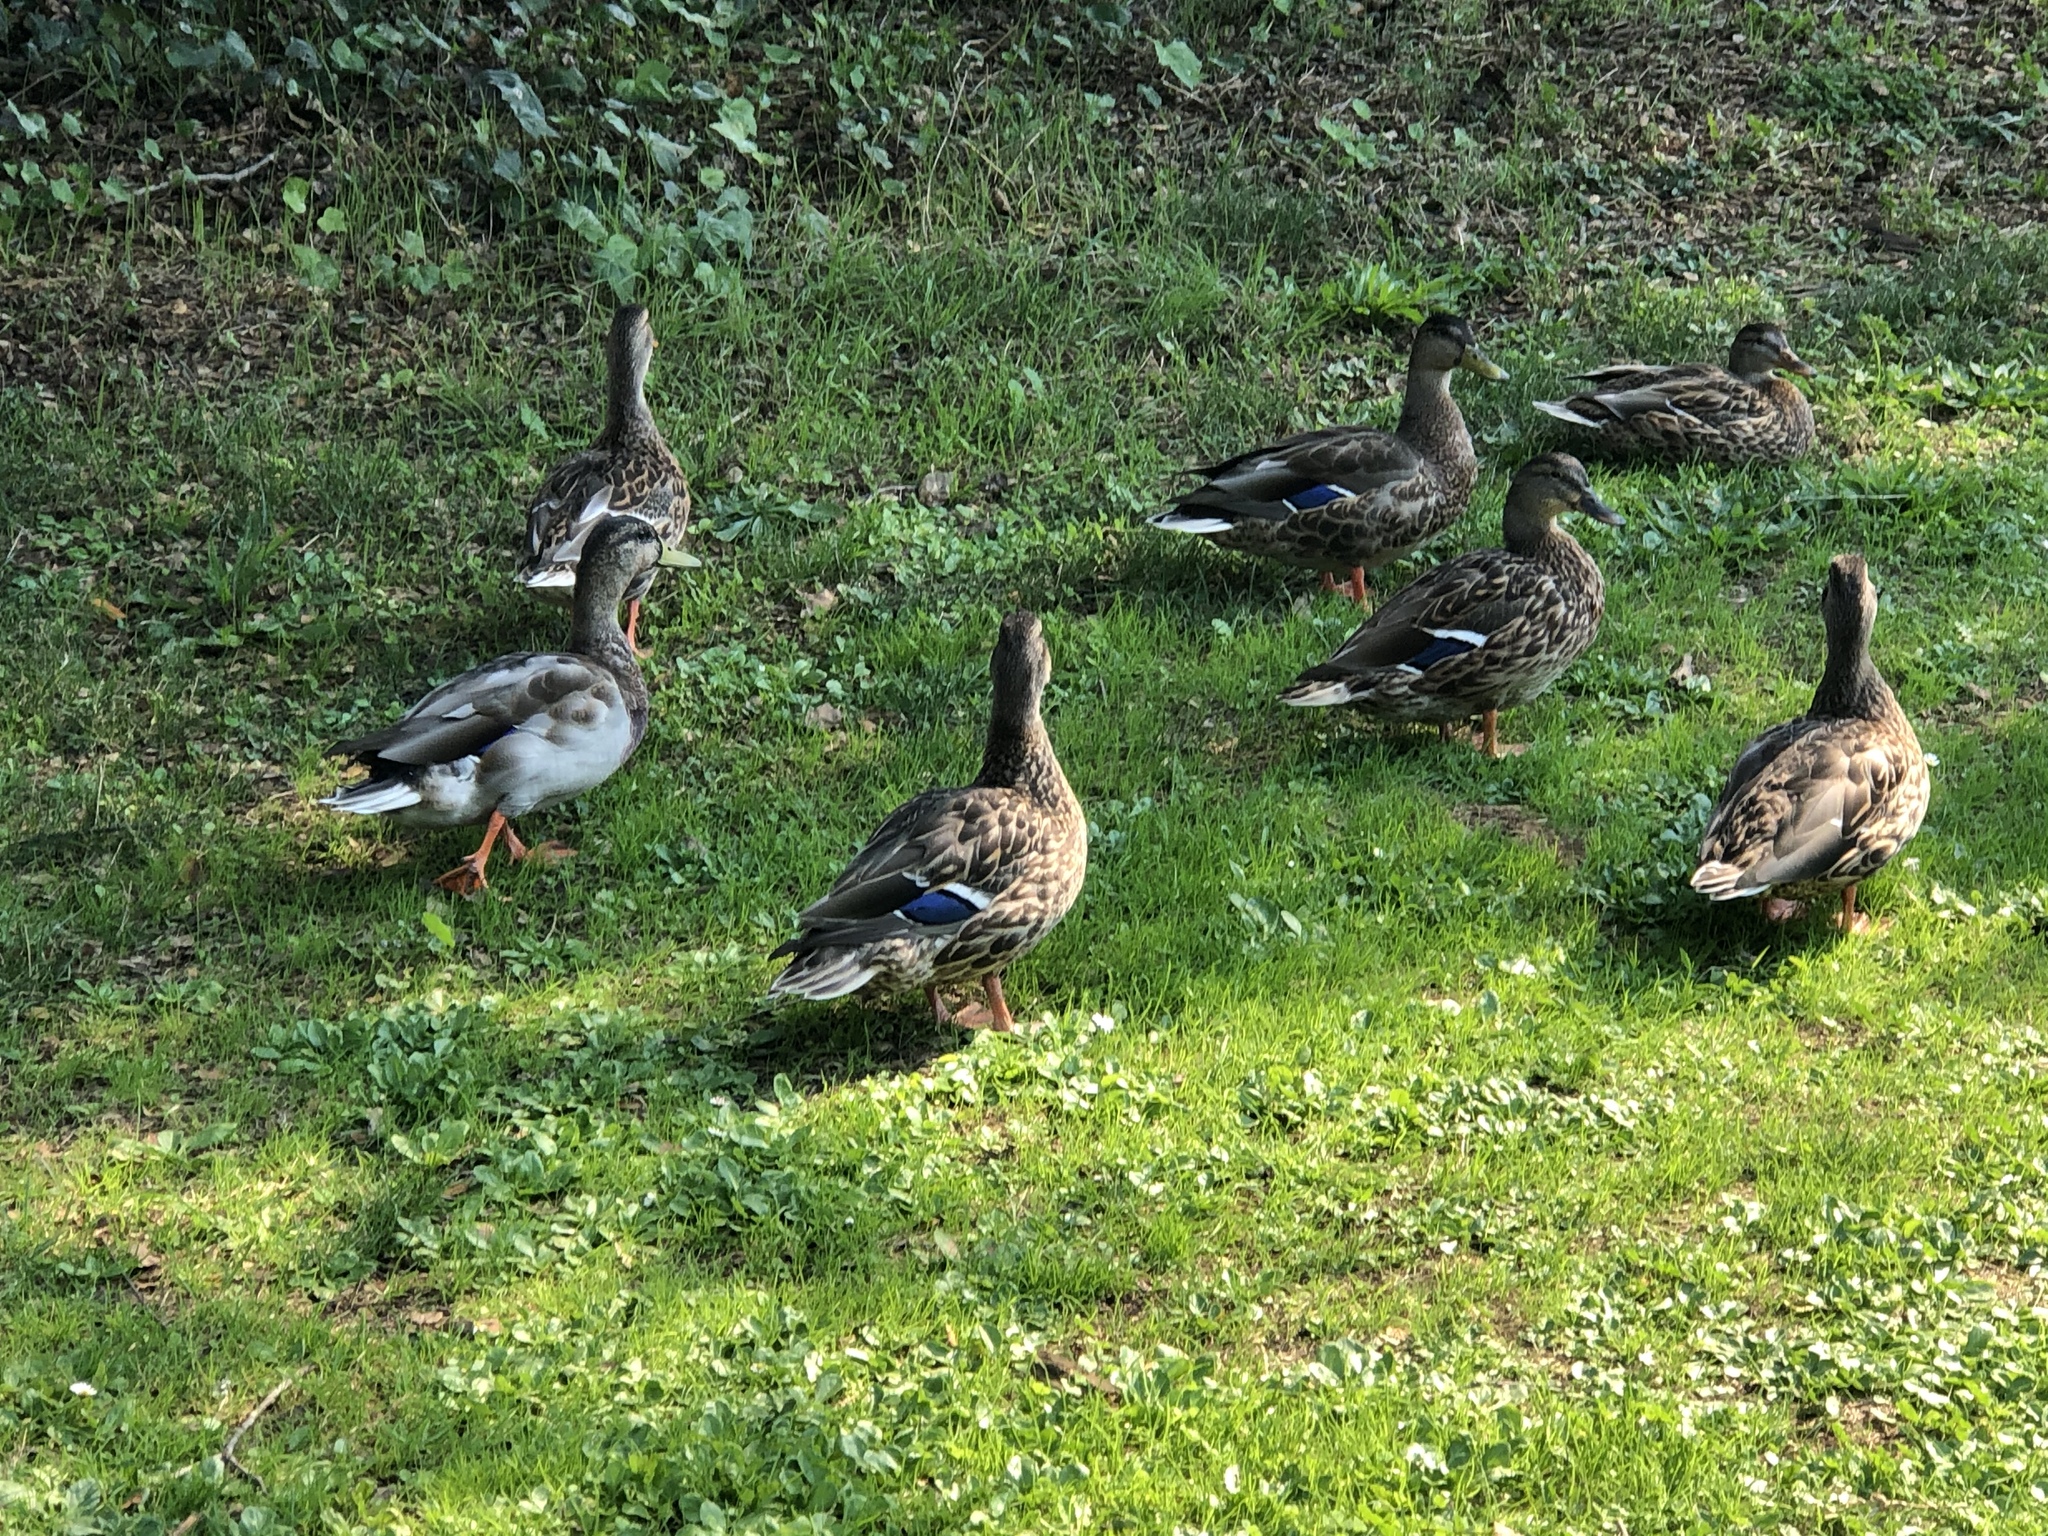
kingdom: Animalia
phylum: Chordata
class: Aves
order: Anseriformes
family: Anatidae
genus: Anas
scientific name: Anas platyrhynchos
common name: Mallard
